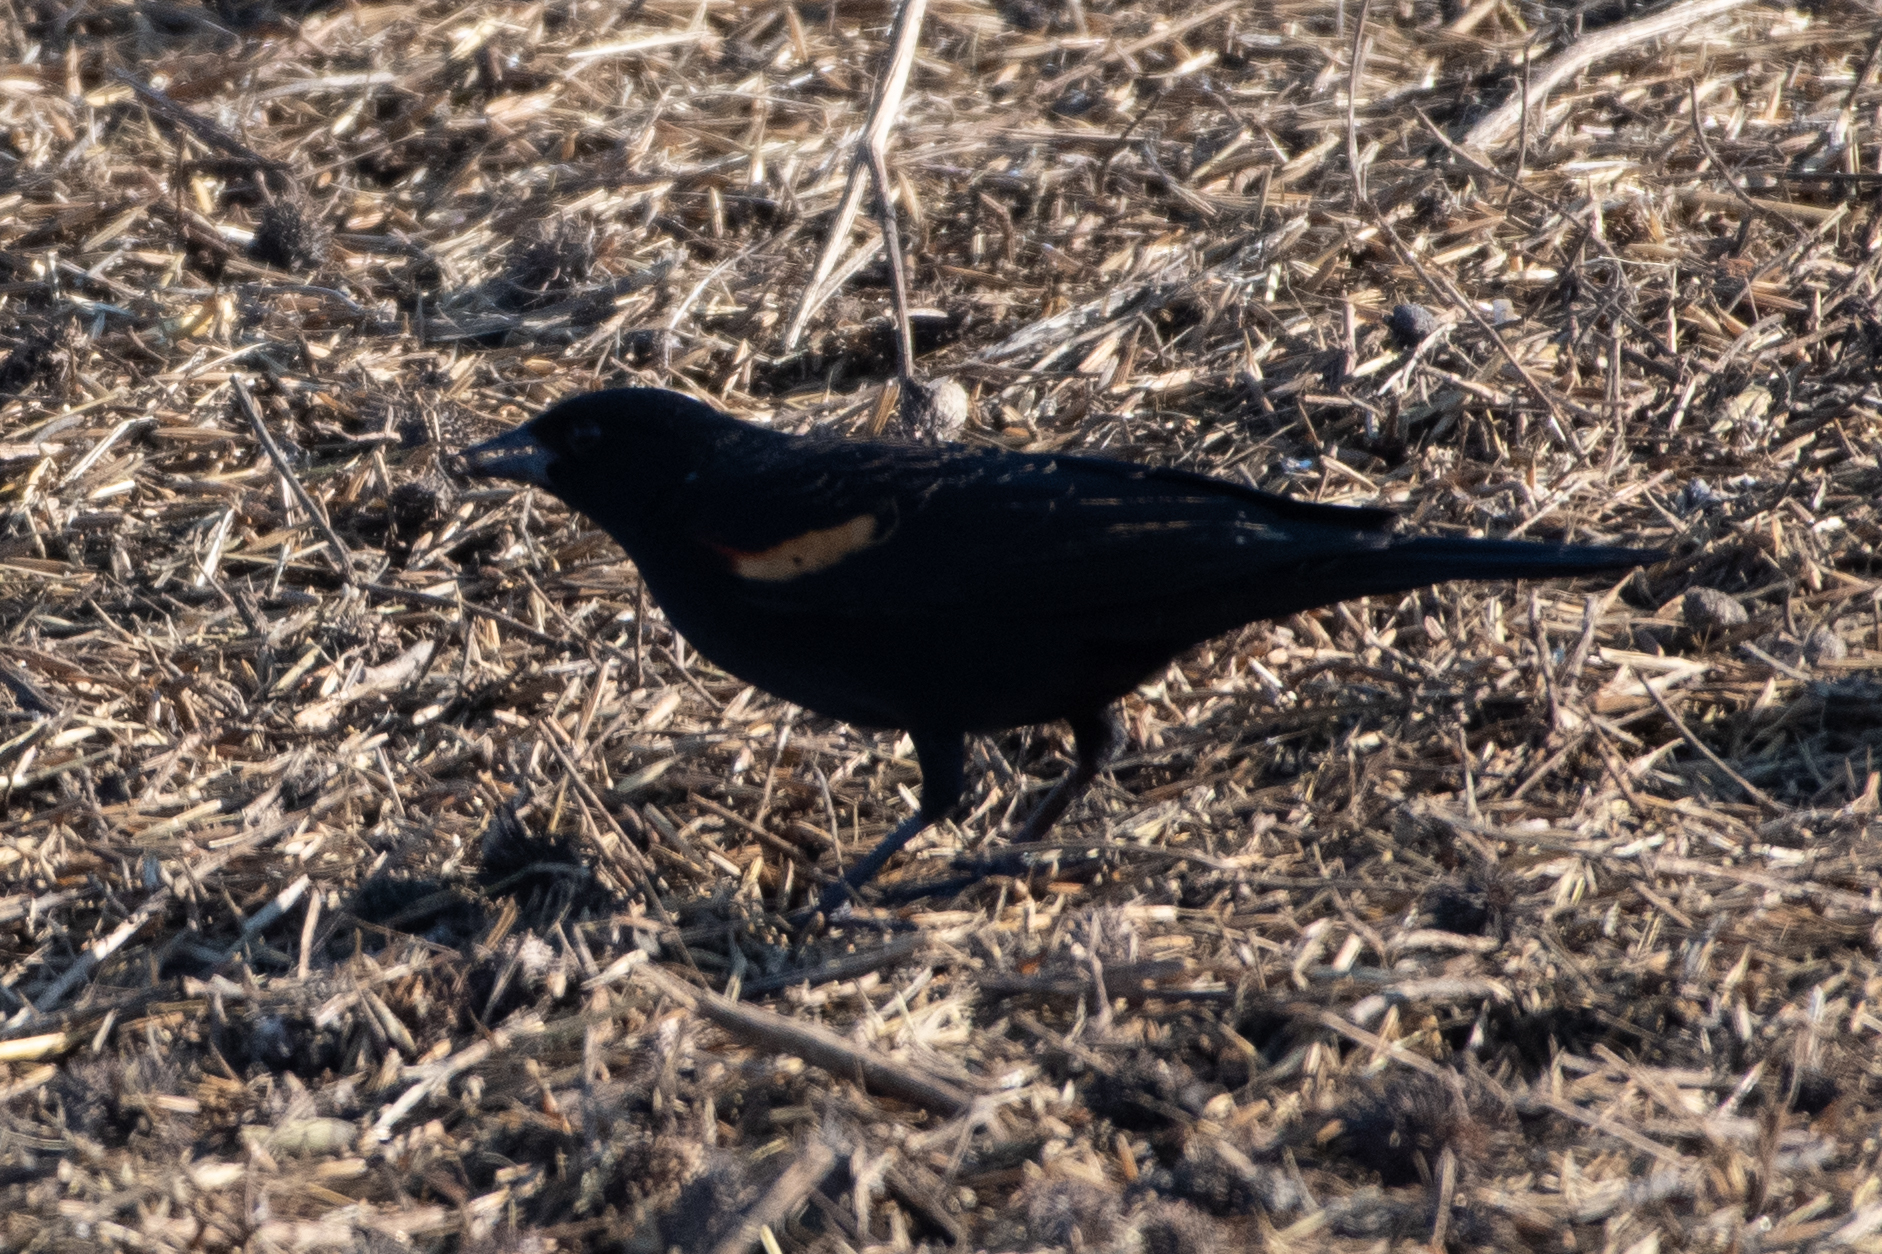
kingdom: Animalia
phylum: Chordata
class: Aves
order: Passeriformes
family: Icteridae
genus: Agelaius
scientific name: Agelaius phoeniceus
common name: Red-winged blackbird
